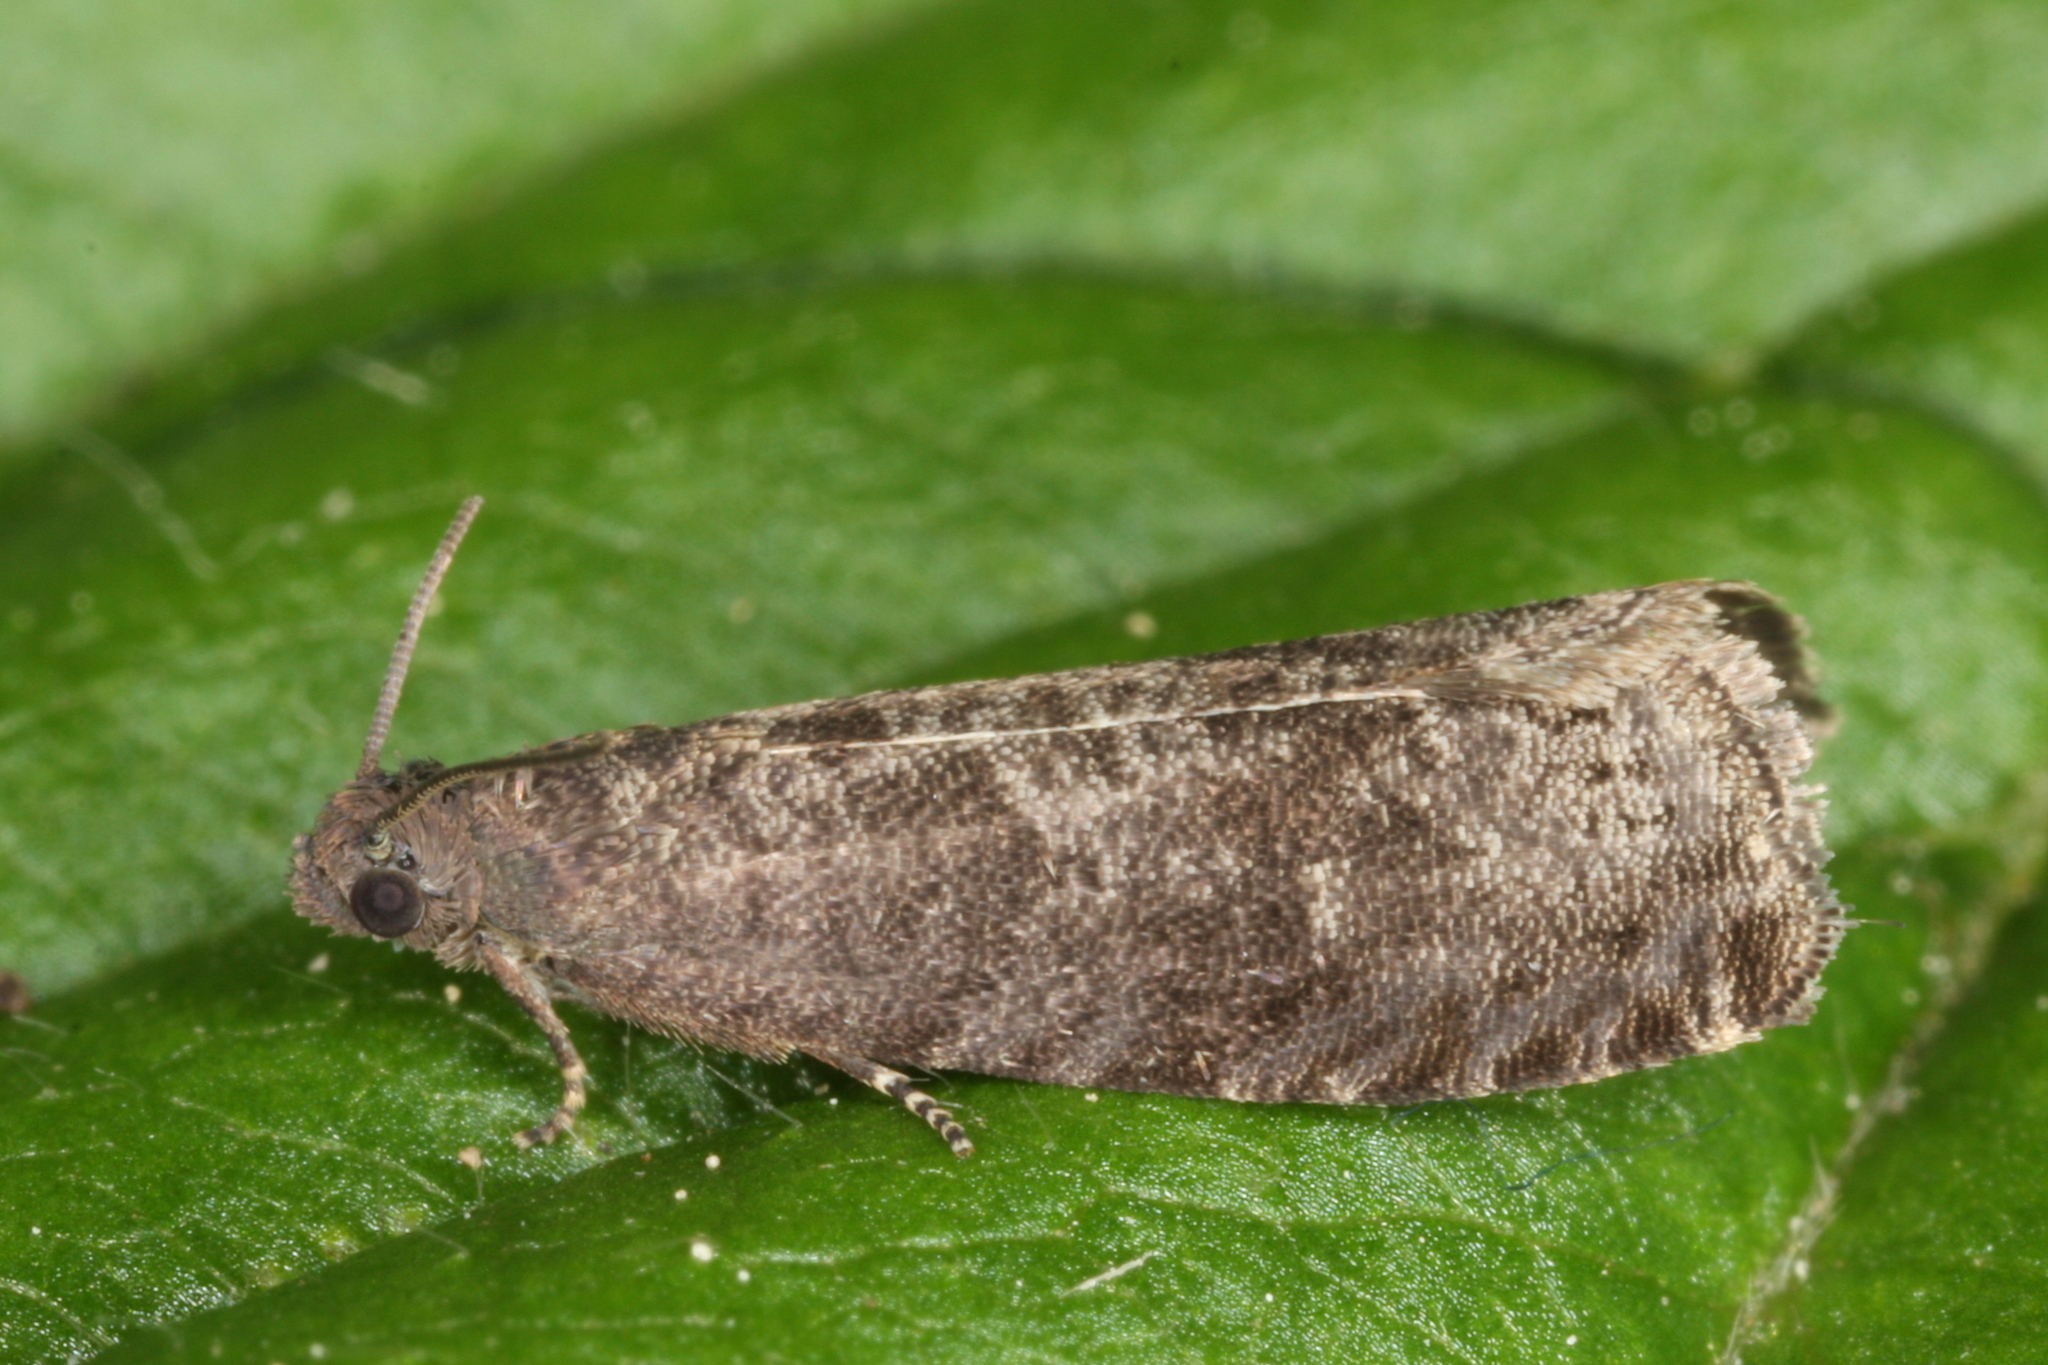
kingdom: Animalia
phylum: Arthropoda
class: Insecta
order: Lepidoptera
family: Noctuidae
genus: Aspila
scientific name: Aspila
